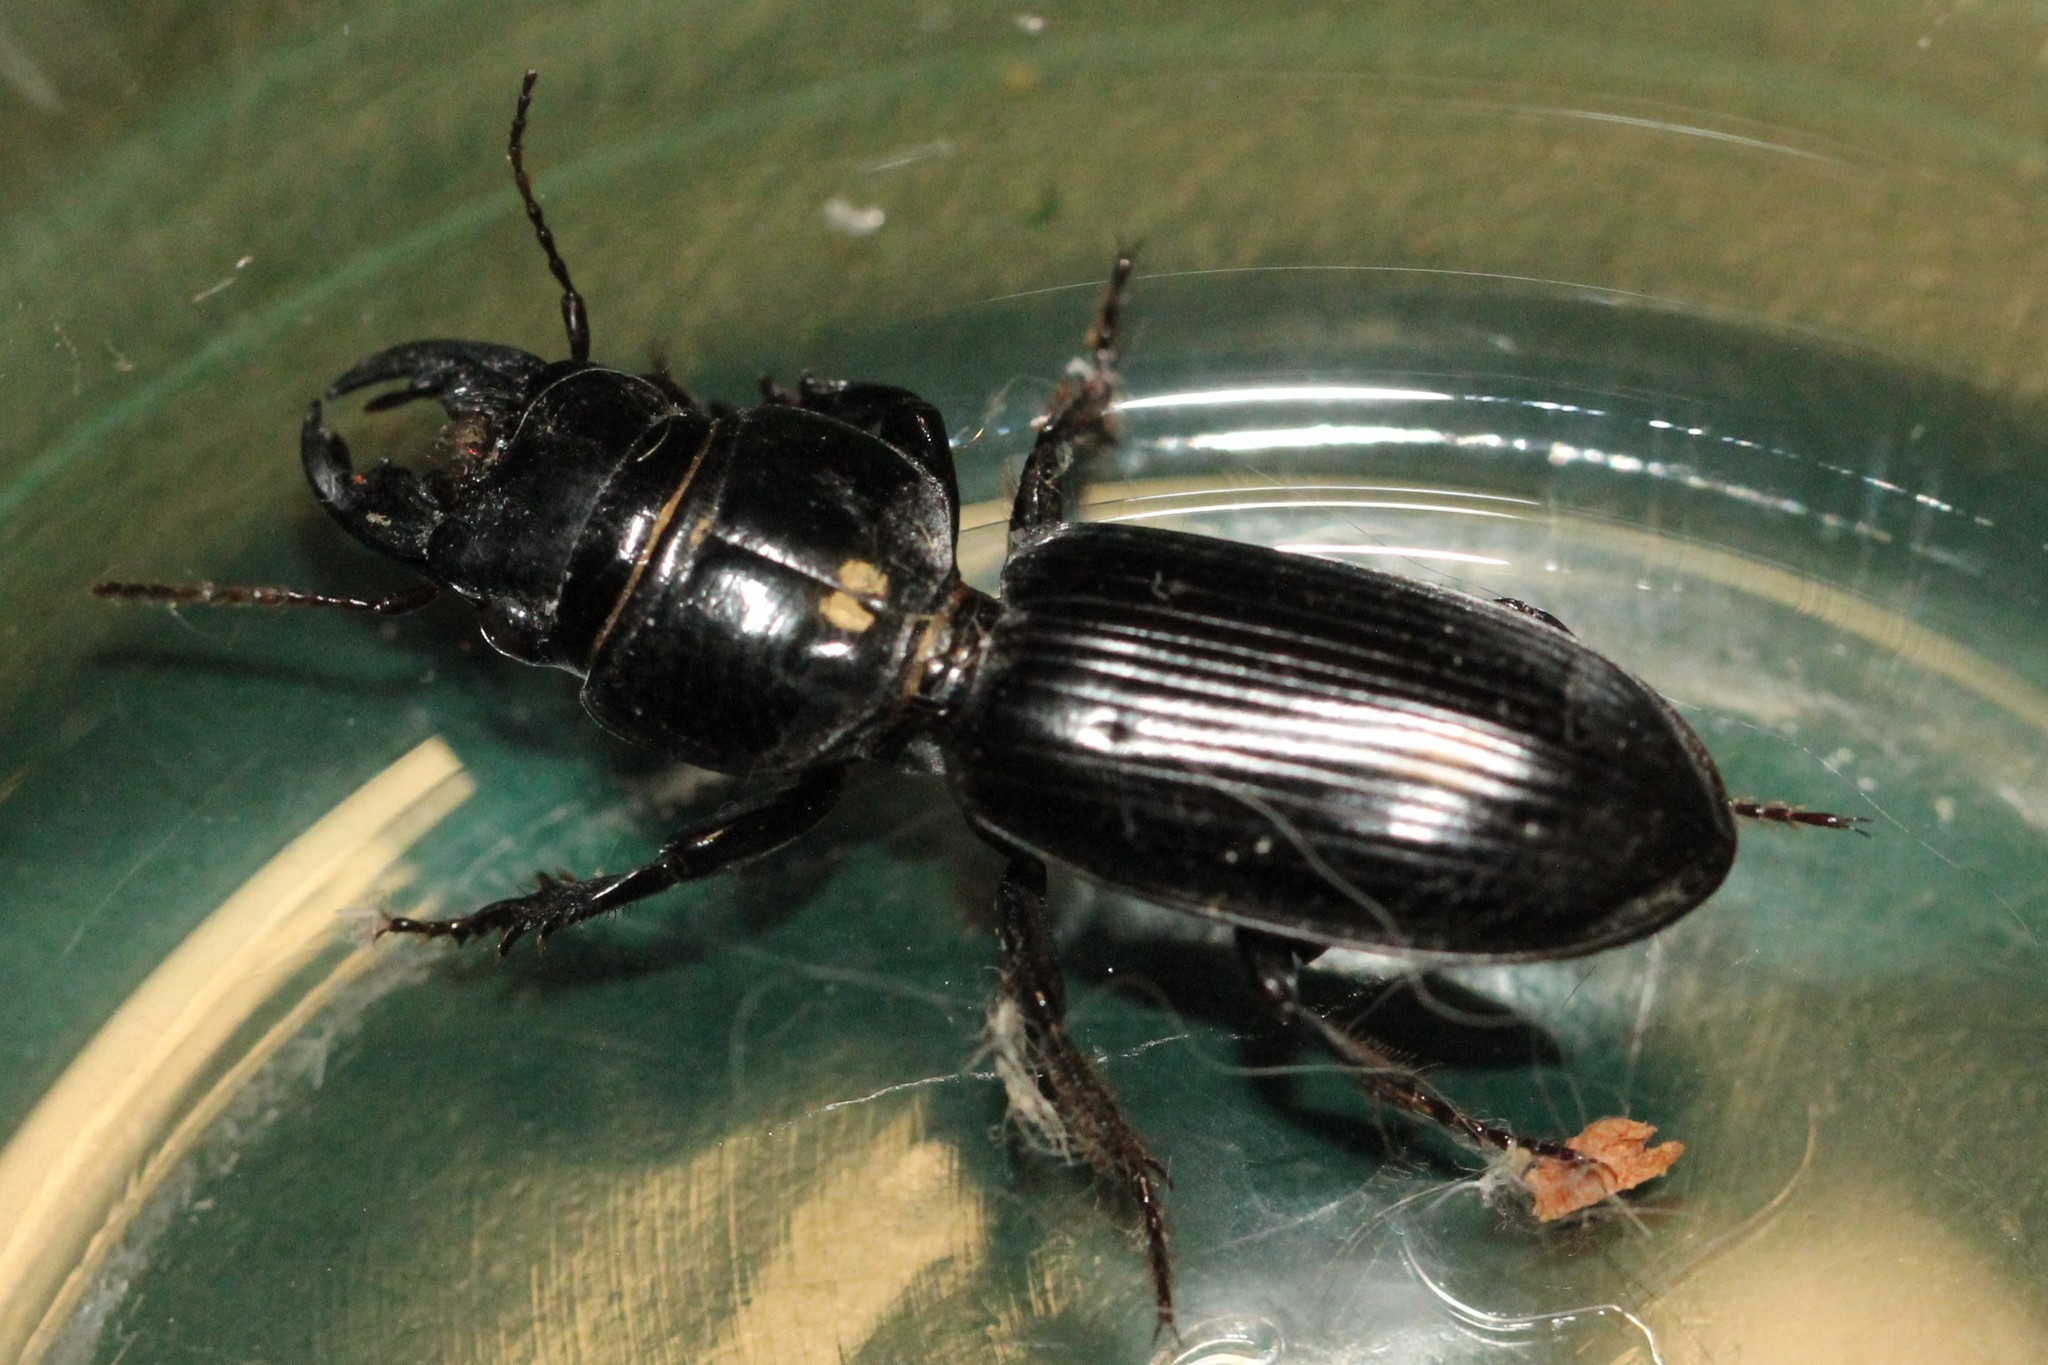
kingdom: Animalia
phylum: Arthropoda
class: Insecta
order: Coleoptera
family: Carabidae
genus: Scarites
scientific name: Scarites subterraneus
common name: Big-headed ground beetle
